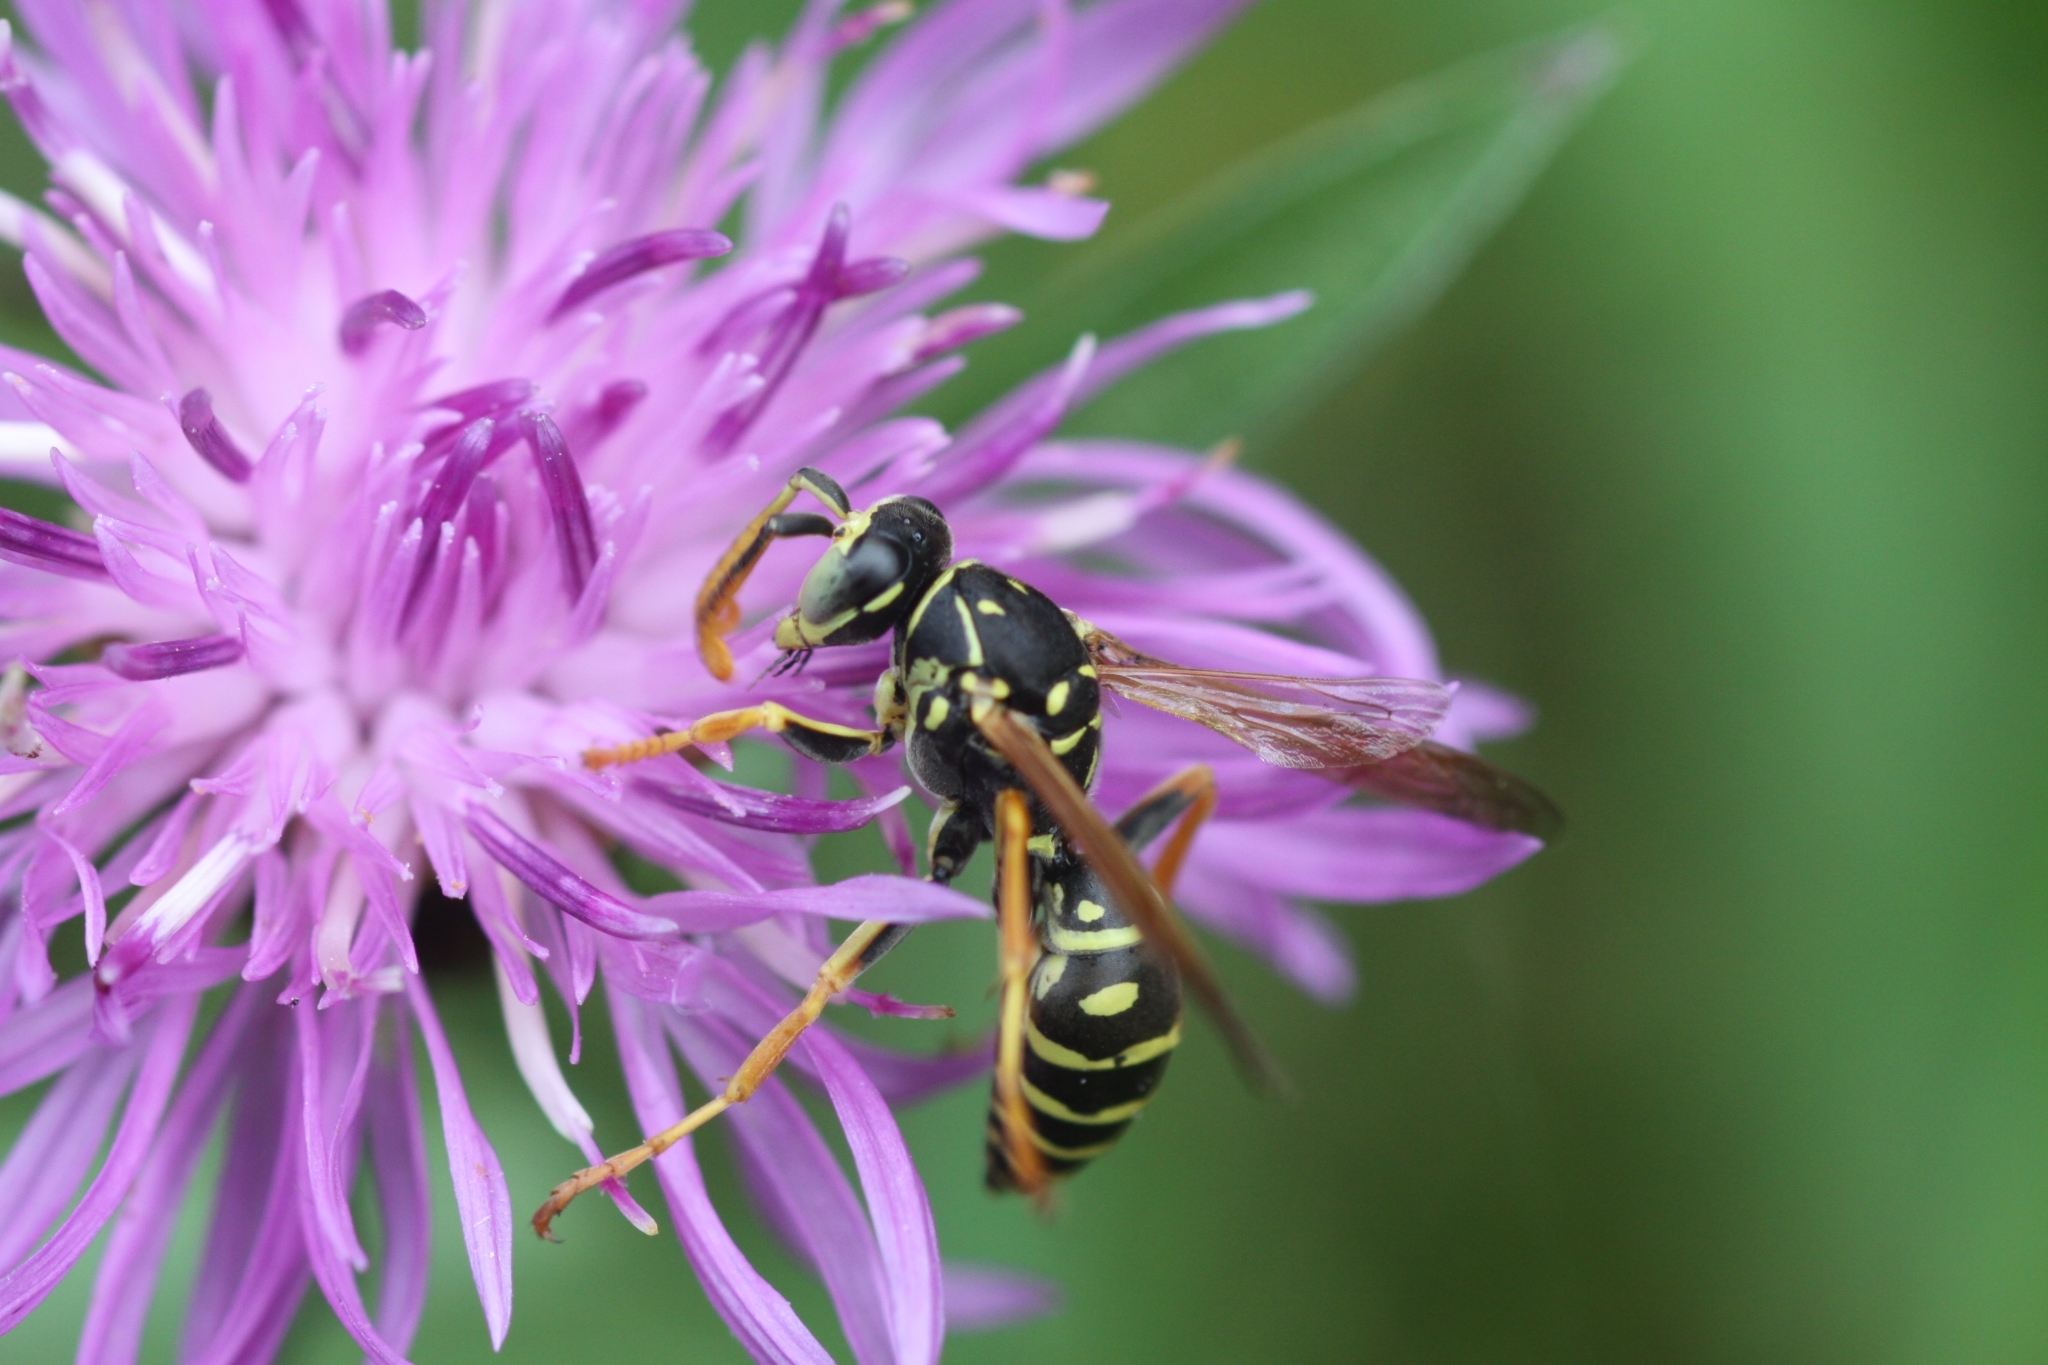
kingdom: Animalia
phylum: Arthropoda
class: Insecta
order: Hymenoptera
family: Eumenidae
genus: Polistes
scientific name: Polistes nimpha
